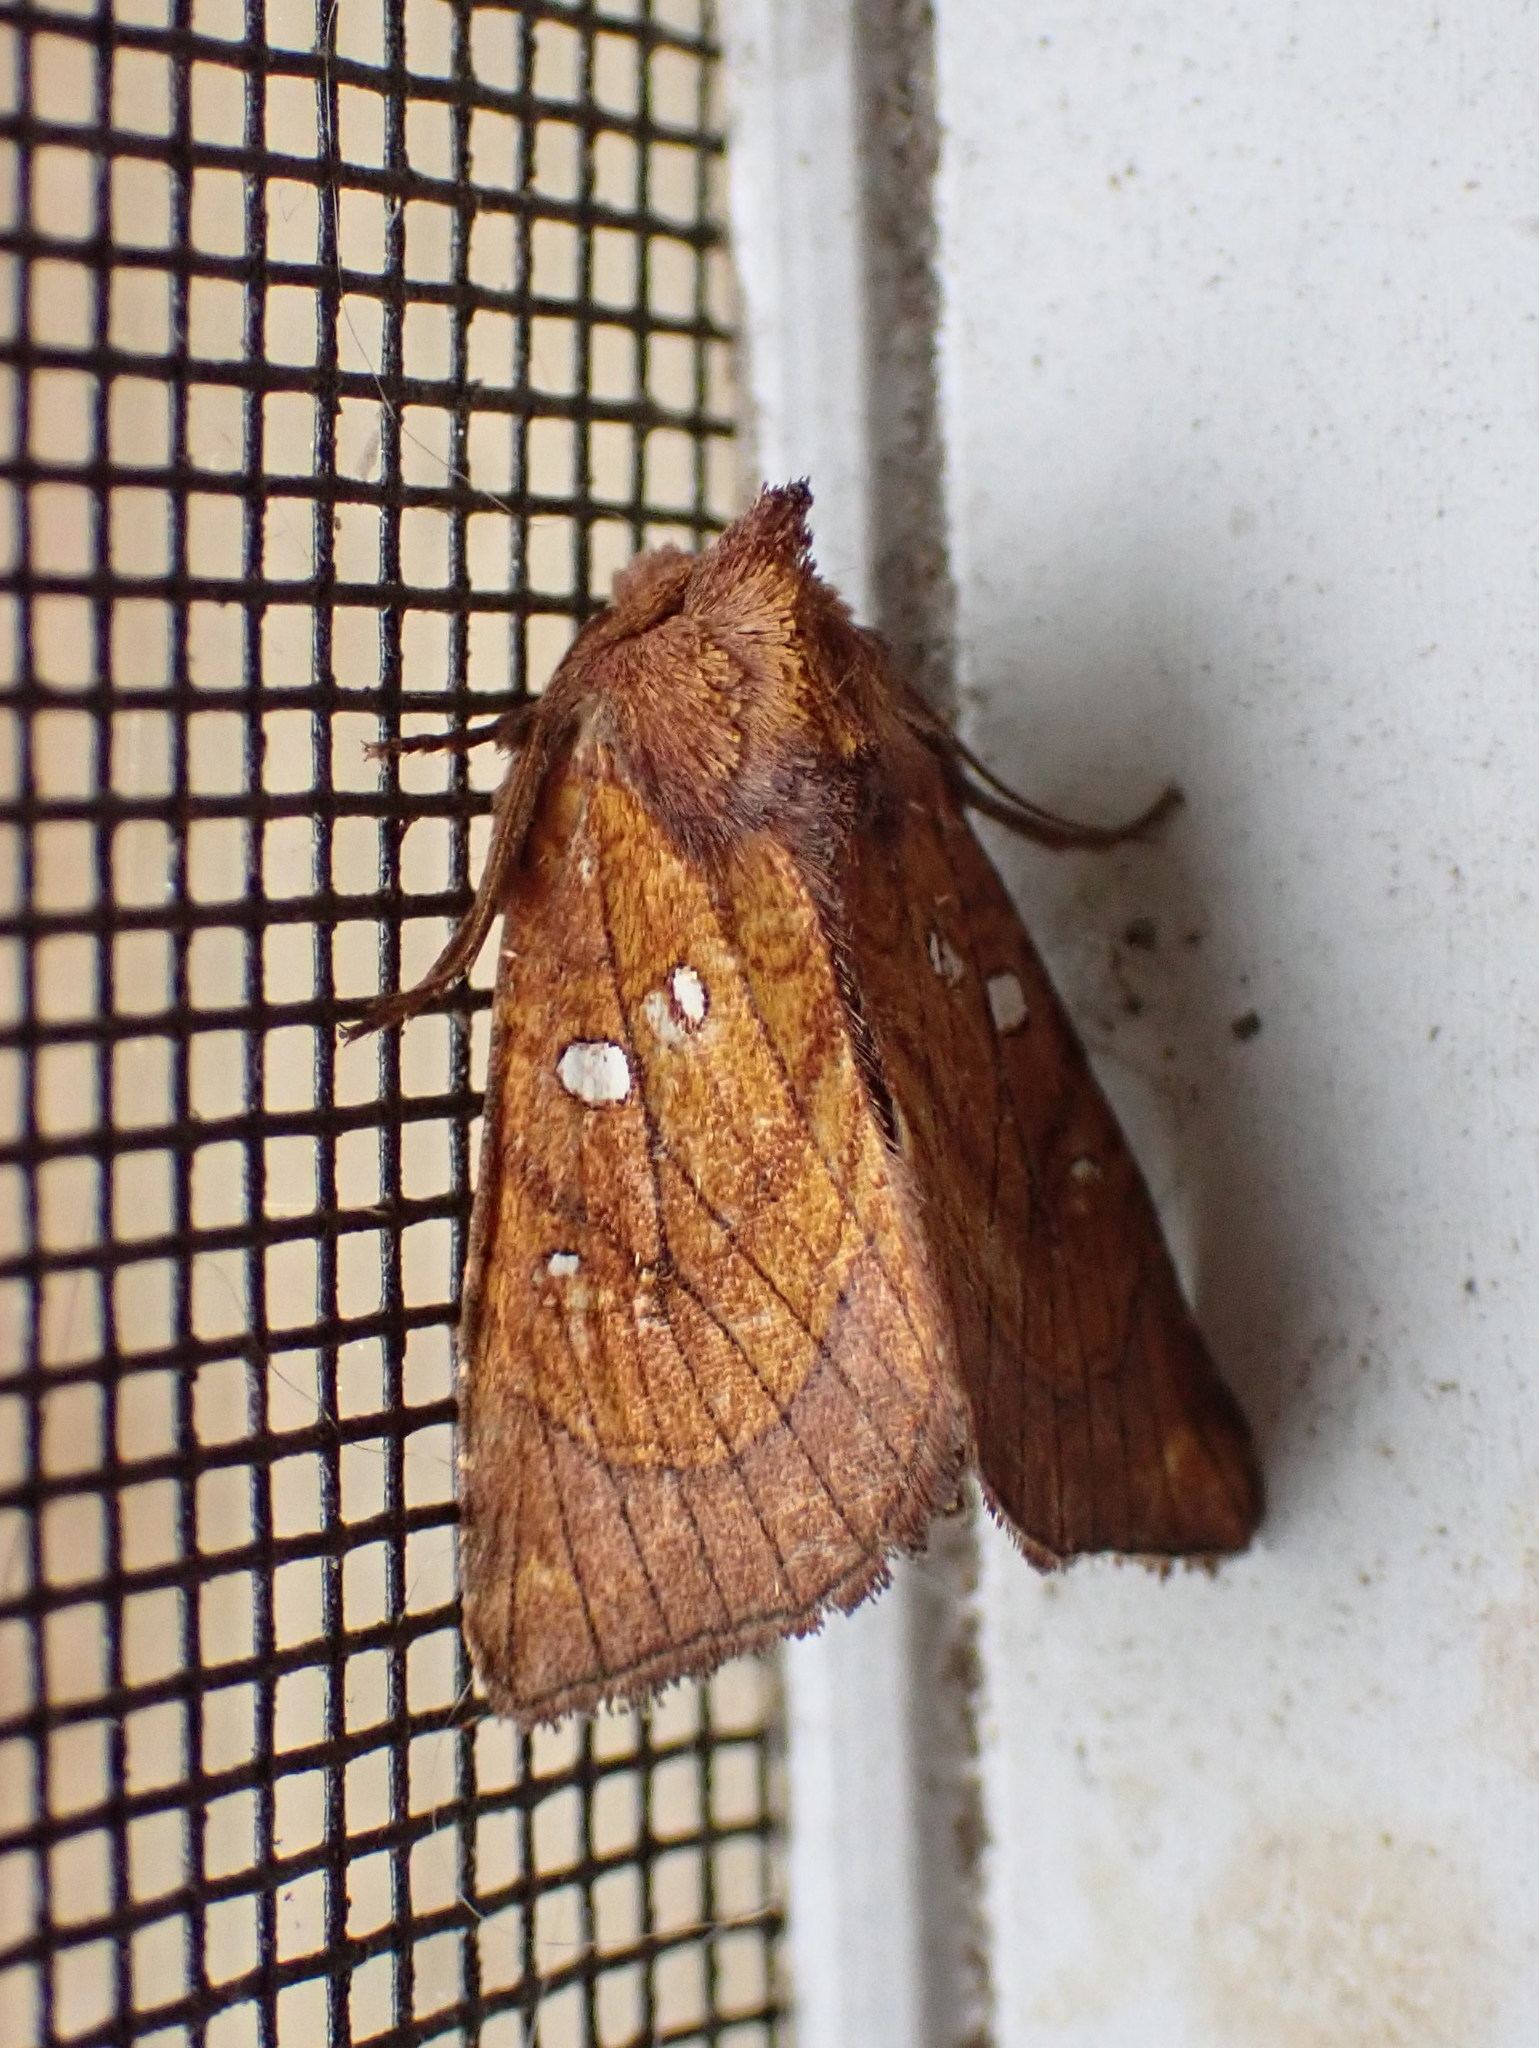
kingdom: Animalia
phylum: Arthropoda
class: Insecta
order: Lepidoptera
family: Noctuidae
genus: Papaipema
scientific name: Papaipema inquaesita
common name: Sensitive fern borer moth
